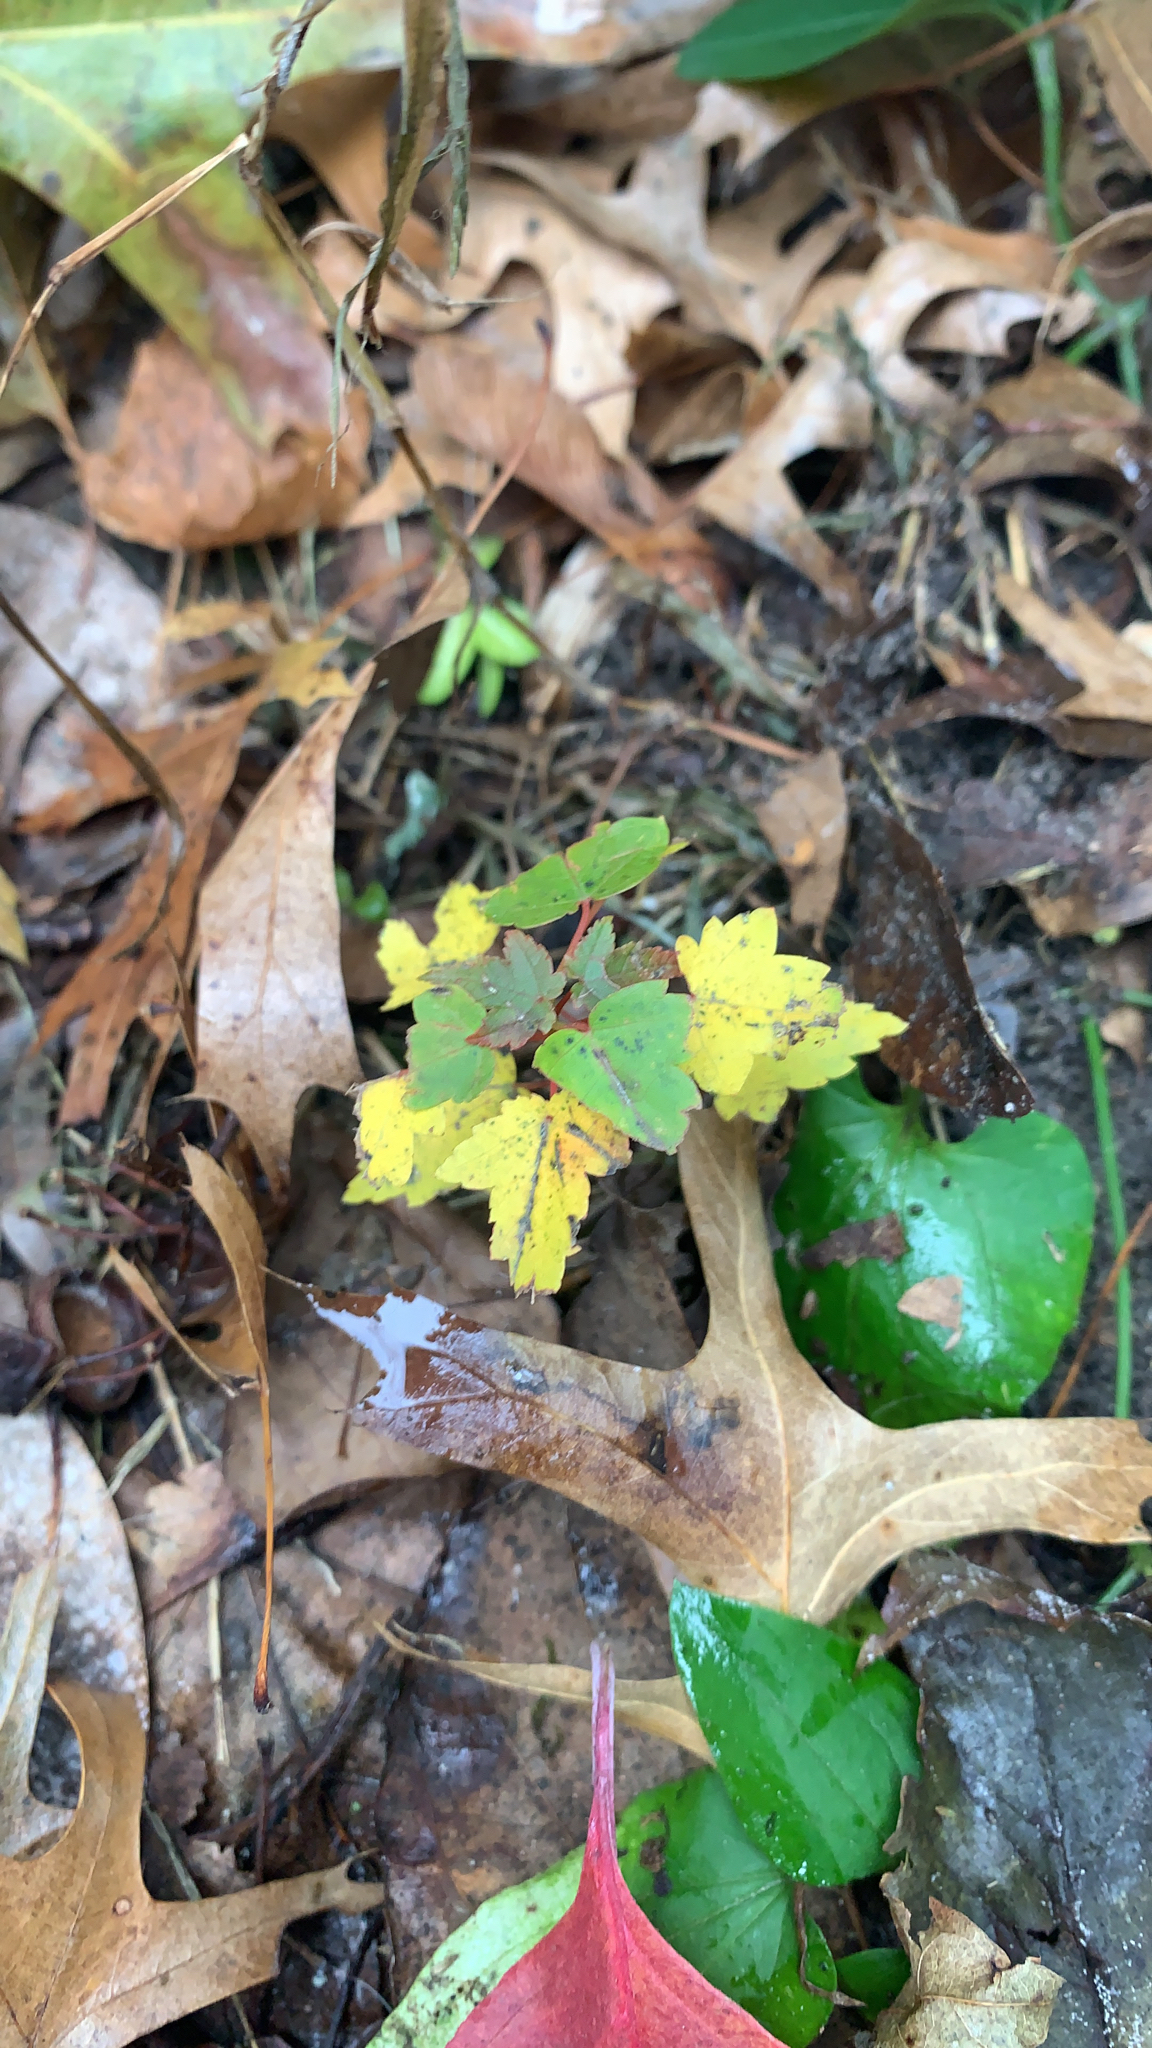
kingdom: Plantae
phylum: Tracheophyta
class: Magnoliopsida
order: Sapindales
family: Sapindaceae
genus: Acer
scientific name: Acer rubrum
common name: Red maple
